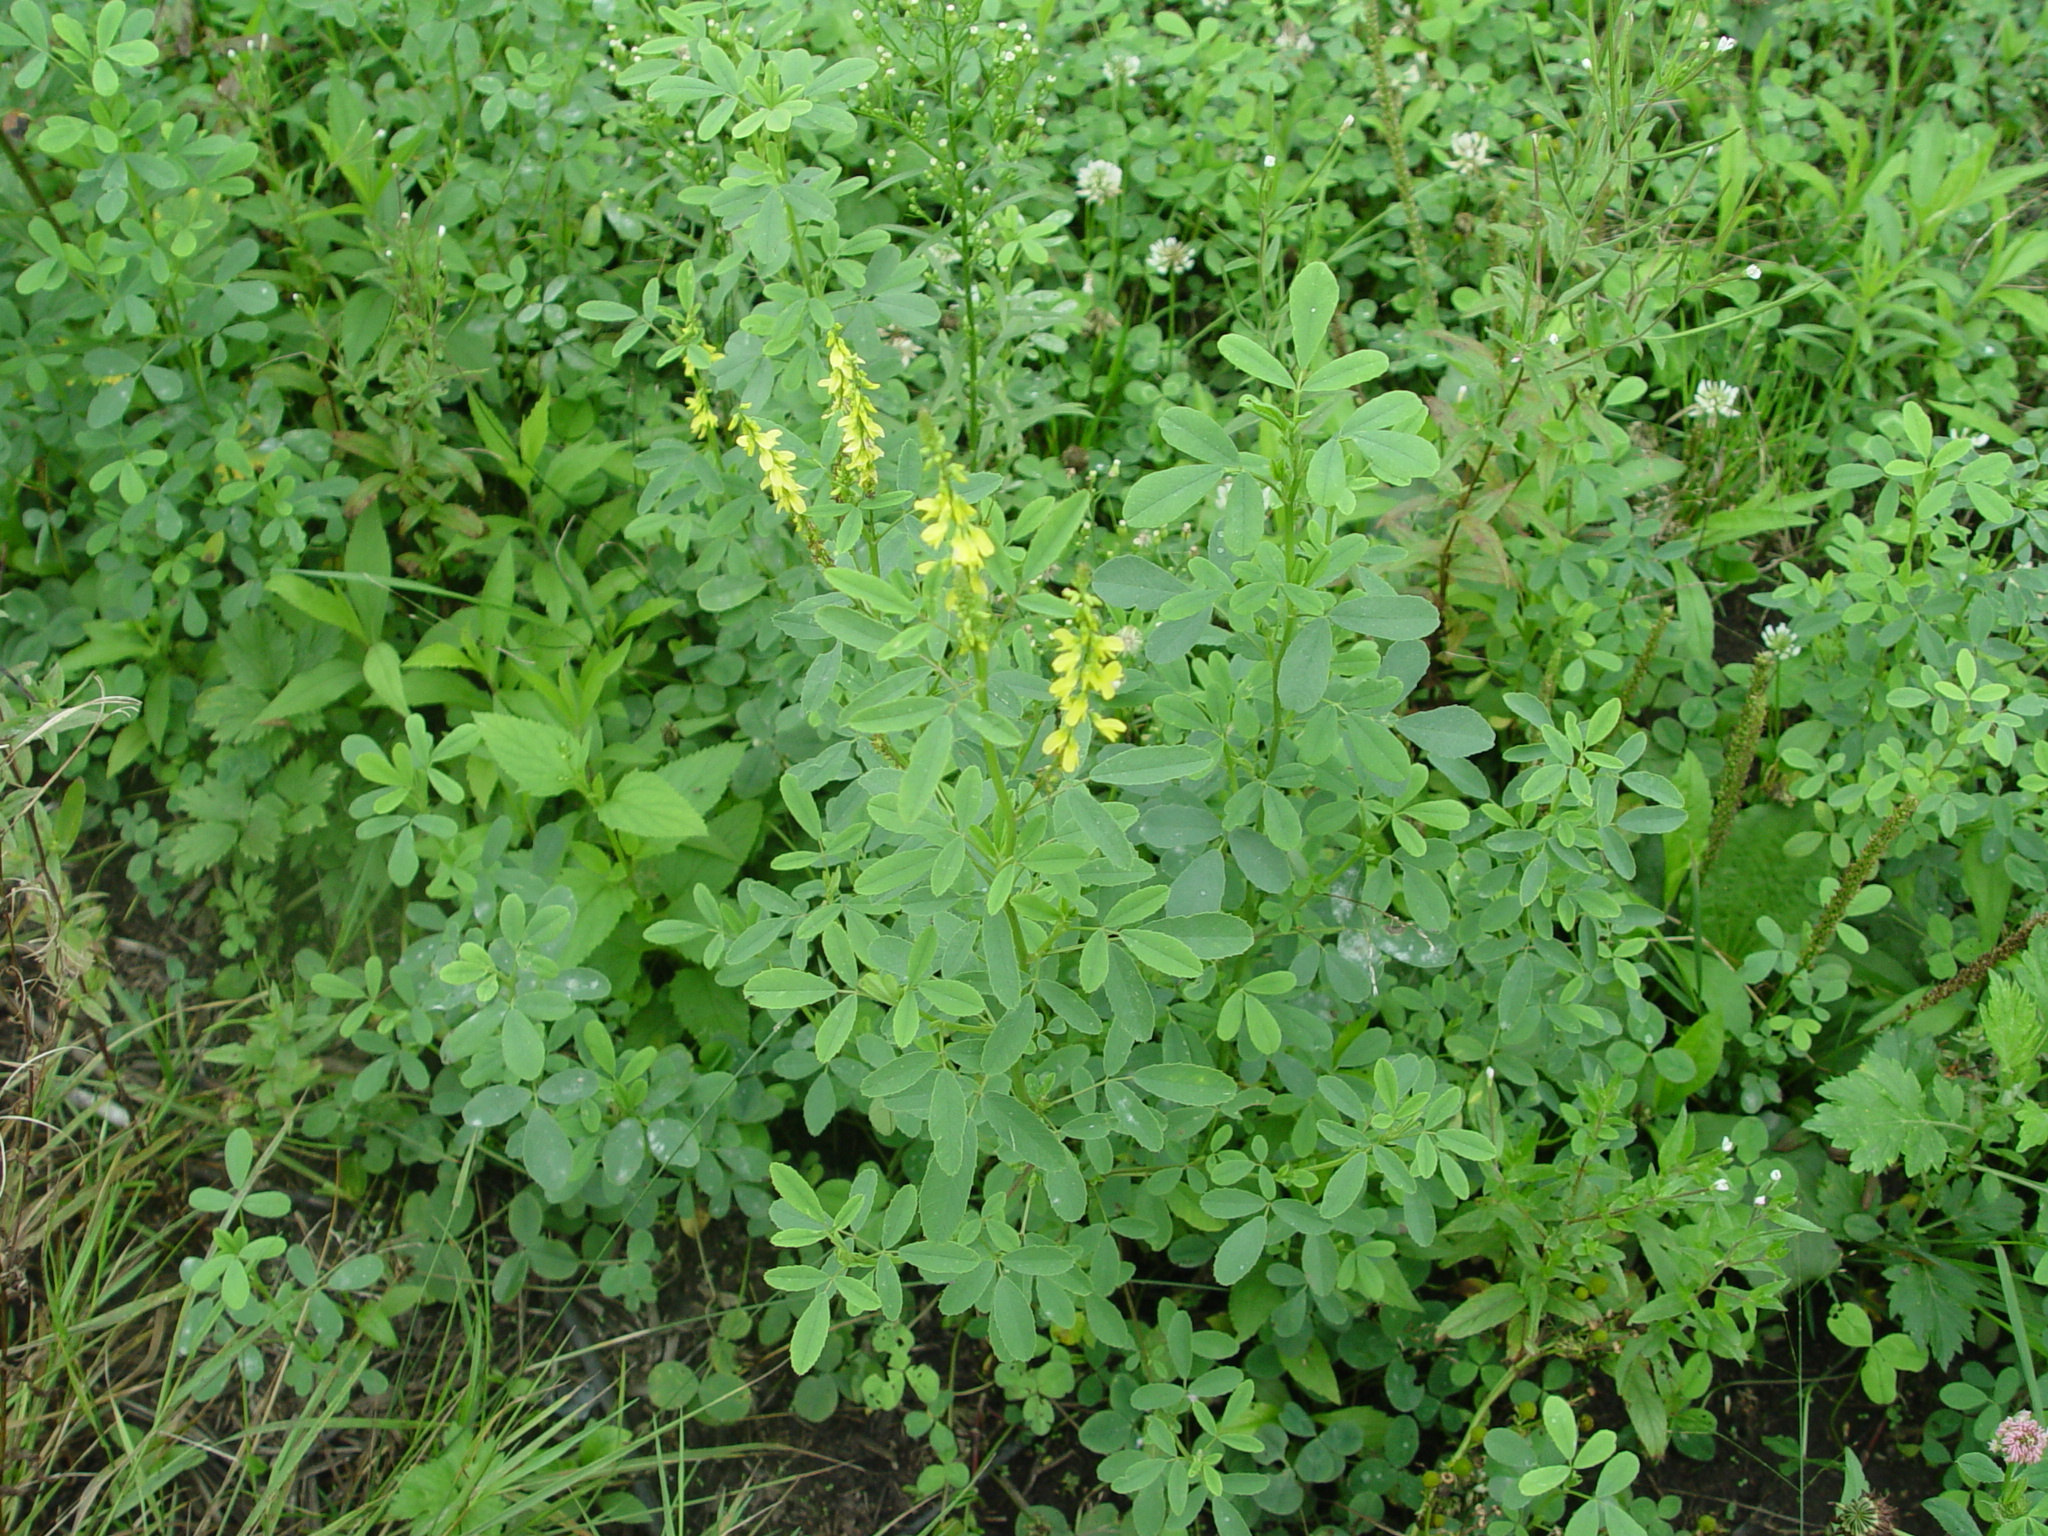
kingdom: Plantae
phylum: Tracheophyta
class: Magnoliopsida
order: Fabales
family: Fabaceae
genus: Melilotus
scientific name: Melilotus officinalis
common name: Sweetclover
